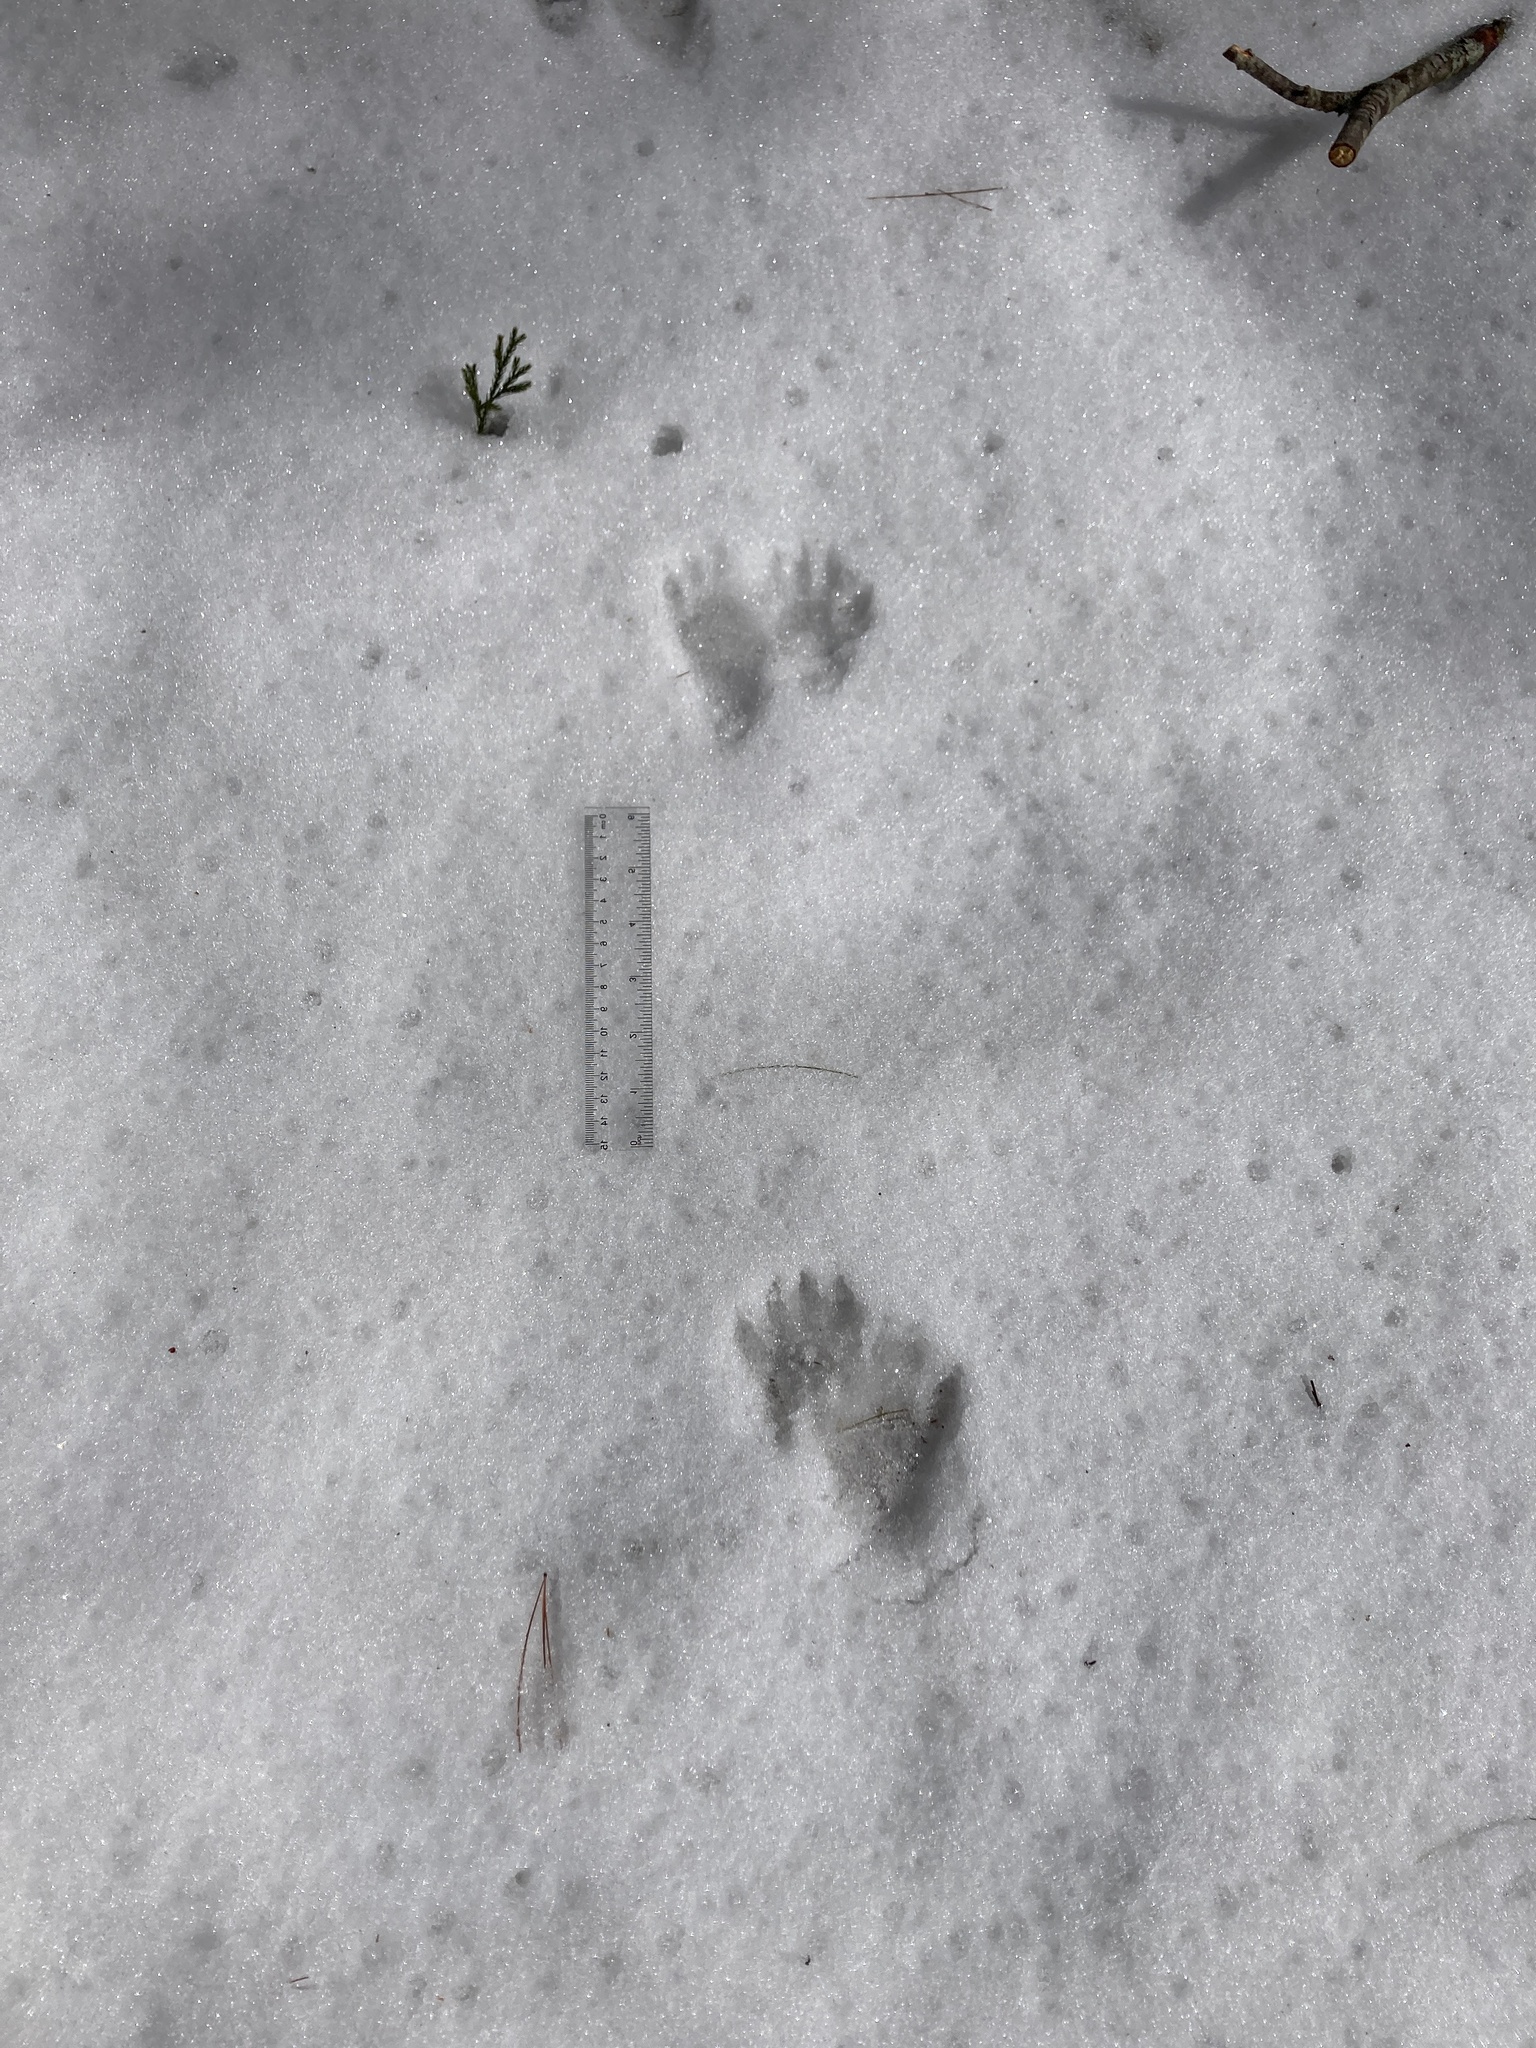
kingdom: Animalia
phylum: Chordata
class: Mammalia
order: Carnivora
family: Procyonidae
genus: Procyon
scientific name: Procyon lotor
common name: Raccoon
